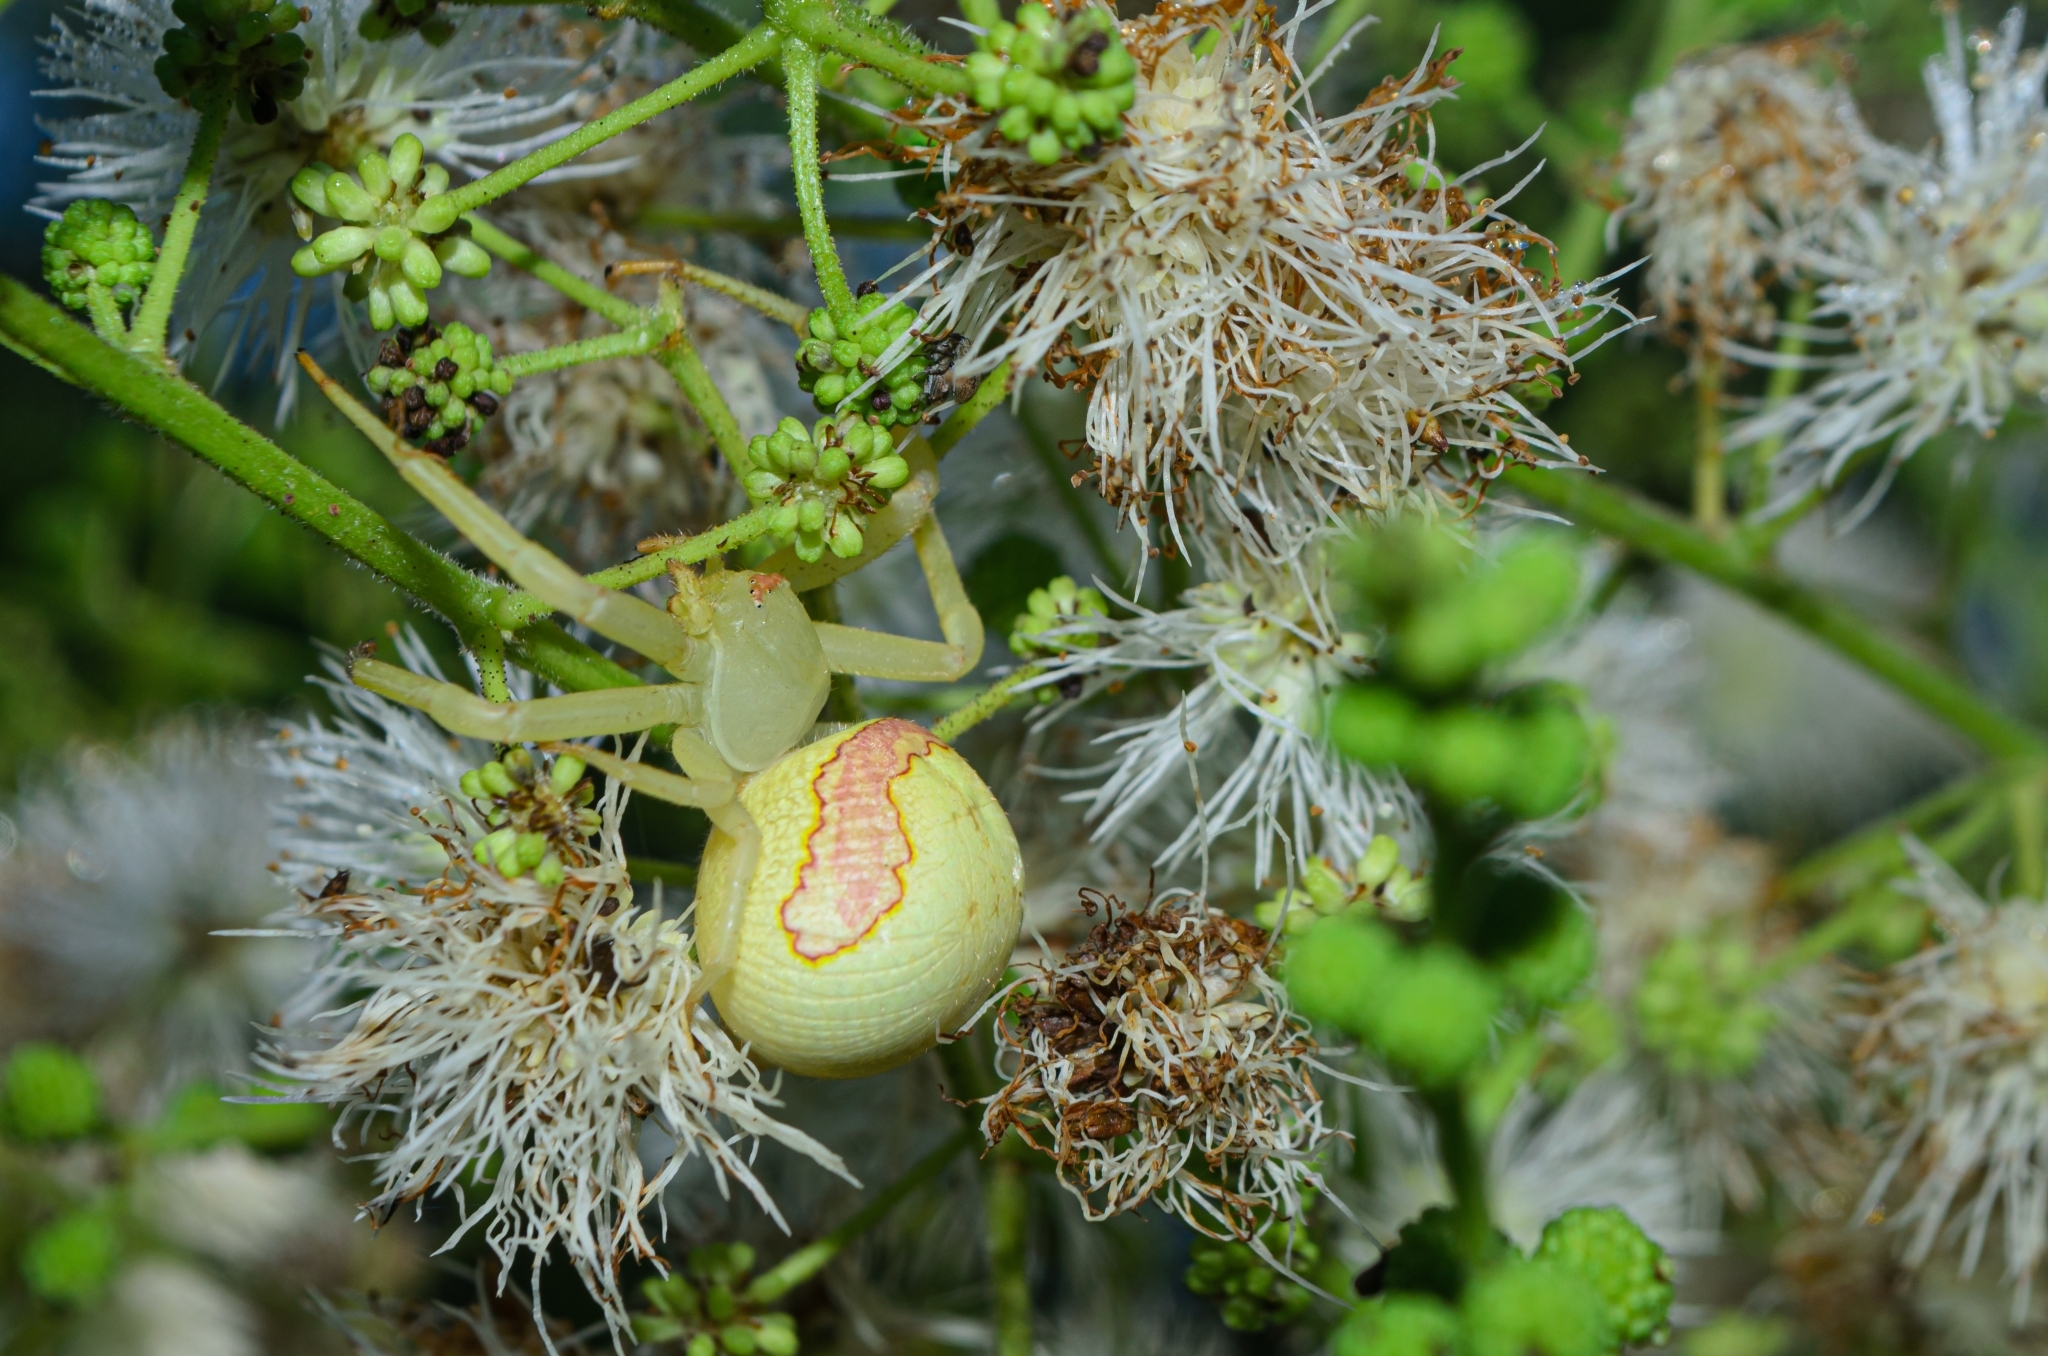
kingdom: Animalia
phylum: Arthropoda
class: Arachnida
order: Araneae
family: Thomisidae
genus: Misumenops
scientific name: Misumenops callinurus
